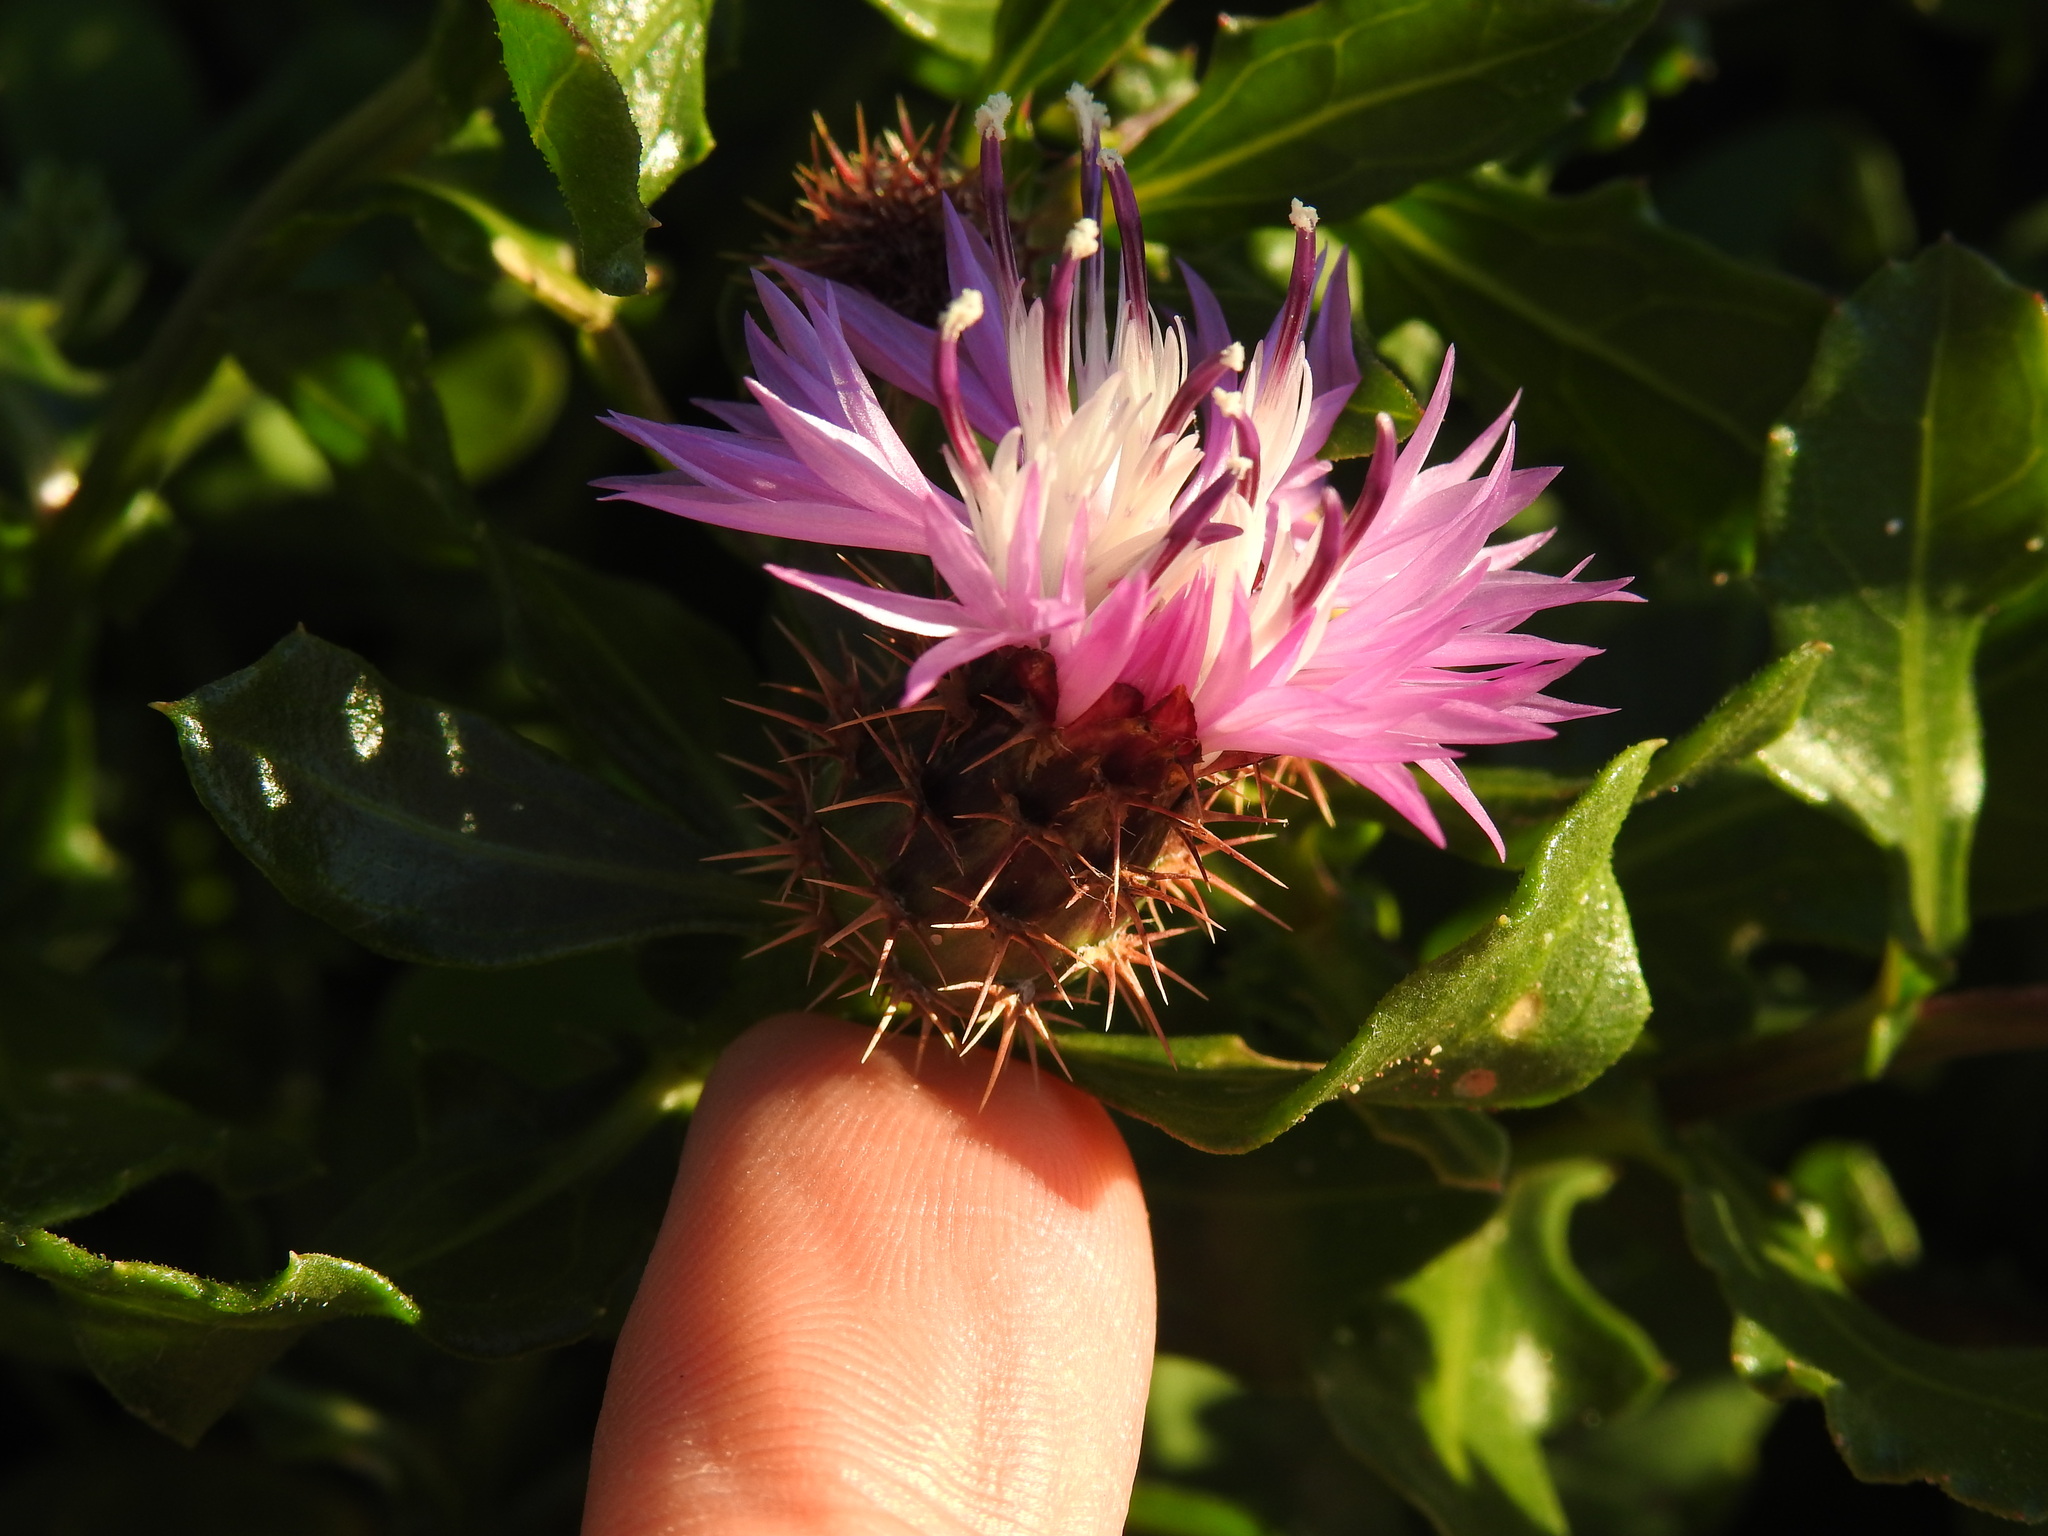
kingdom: Plantae
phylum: Tracheophyta
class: Magnoliopsida
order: Asterales
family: Asteraceae
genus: Centaurea
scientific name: Centaurea susannae
